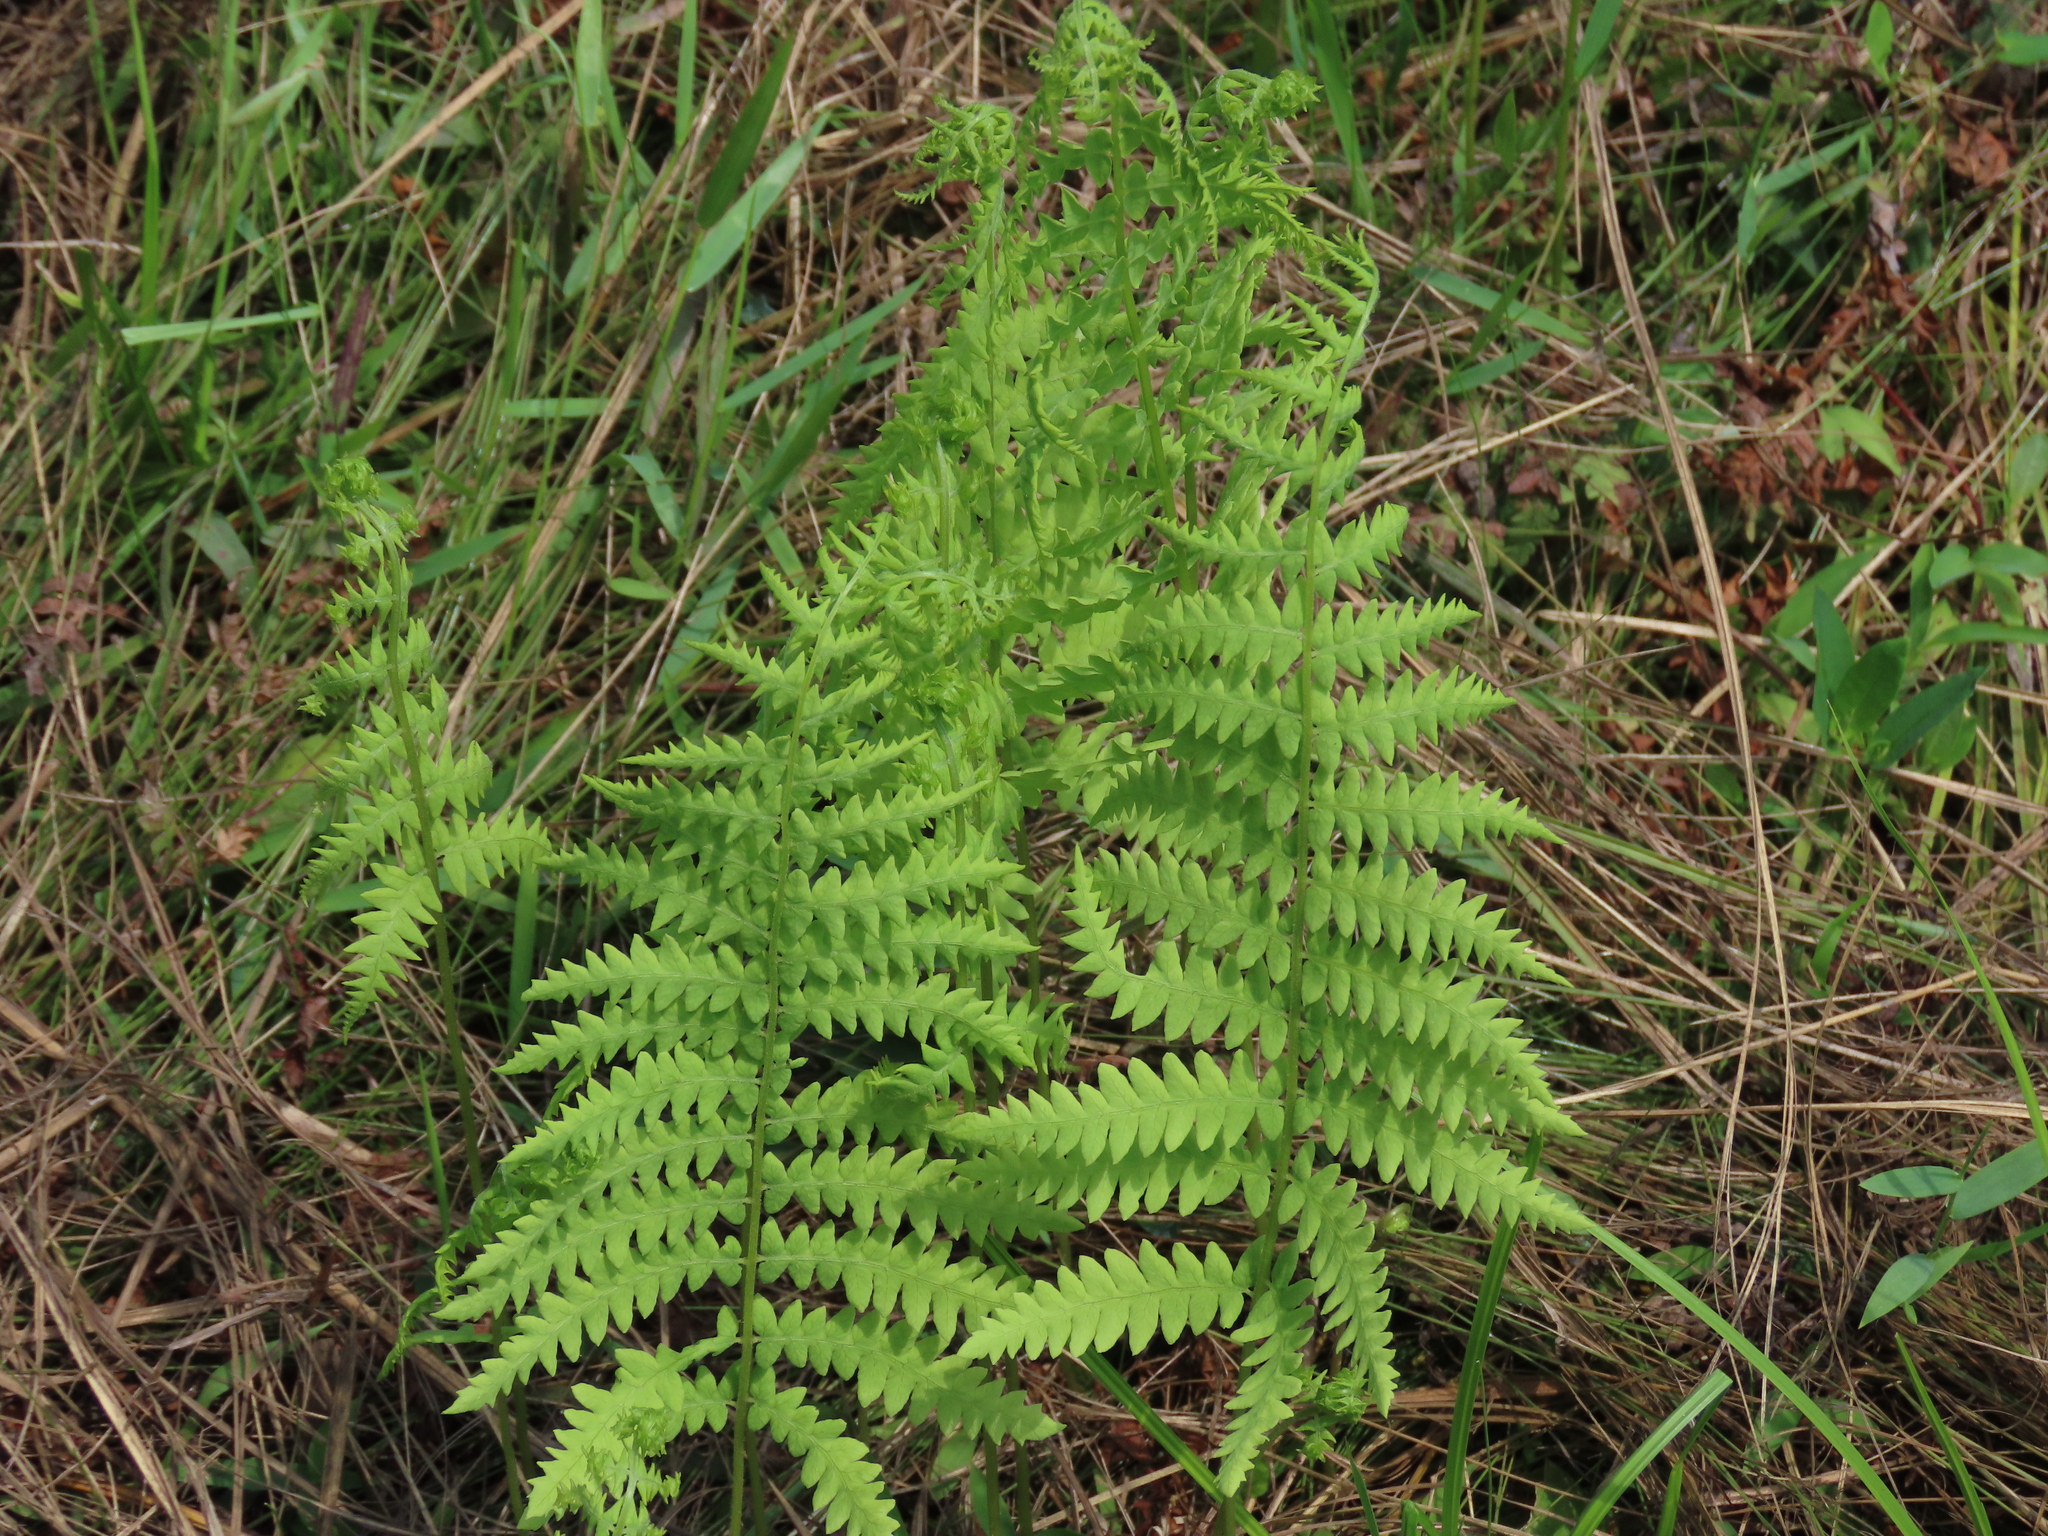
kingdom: Plantae
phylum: Tracheophyta
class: Polypodiopsida
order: Polypodiales
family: Thelypteridaceae
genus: Thelypteris
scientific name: Thelypteris palustris
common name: Marsh fern
